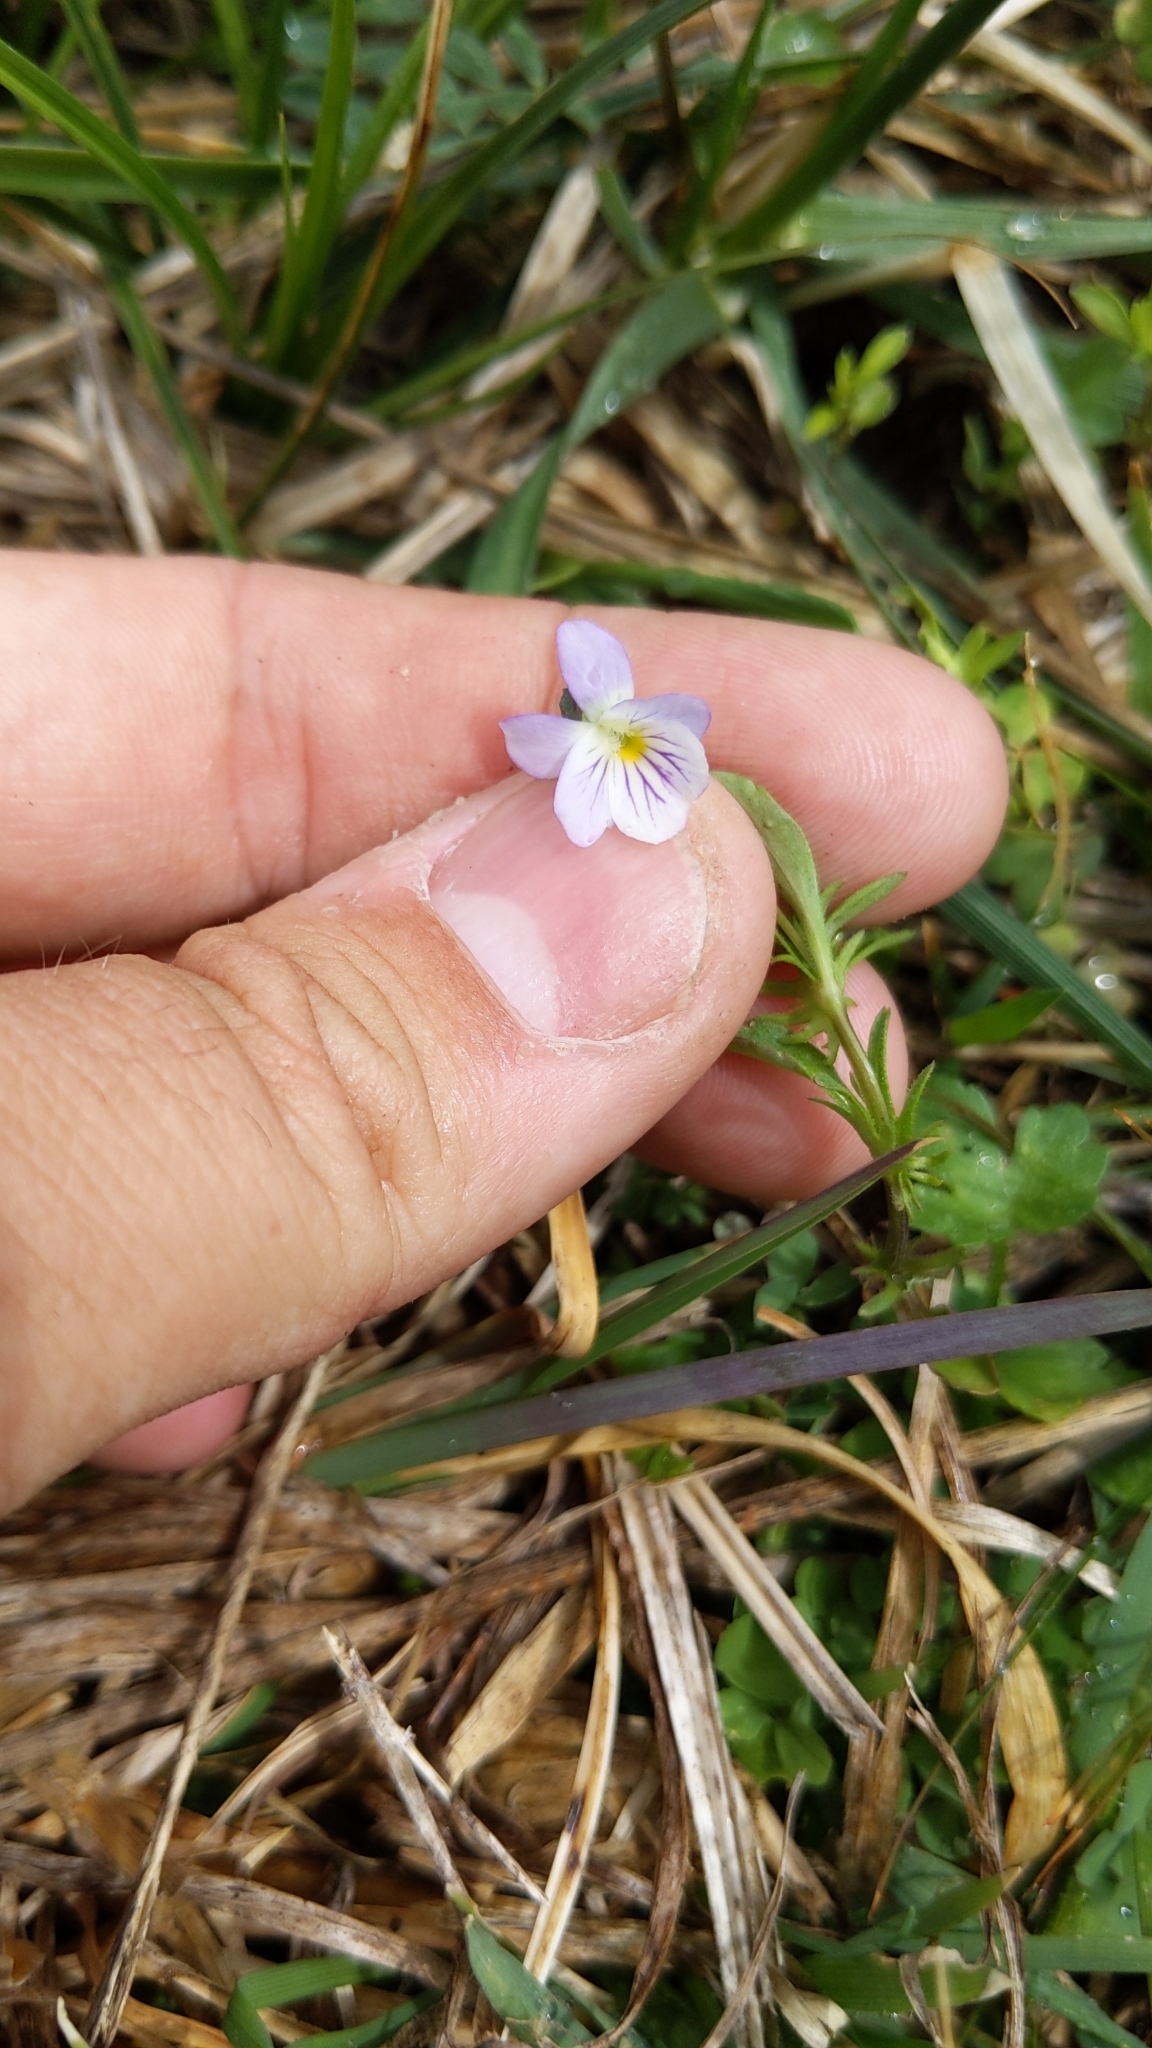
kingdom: Plantae
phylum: Tracheophyta
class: Magnoliopsida
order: Malpighiales
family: Violaceae
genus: Viola
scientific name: Viola rafinesquei
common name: American field pansy
